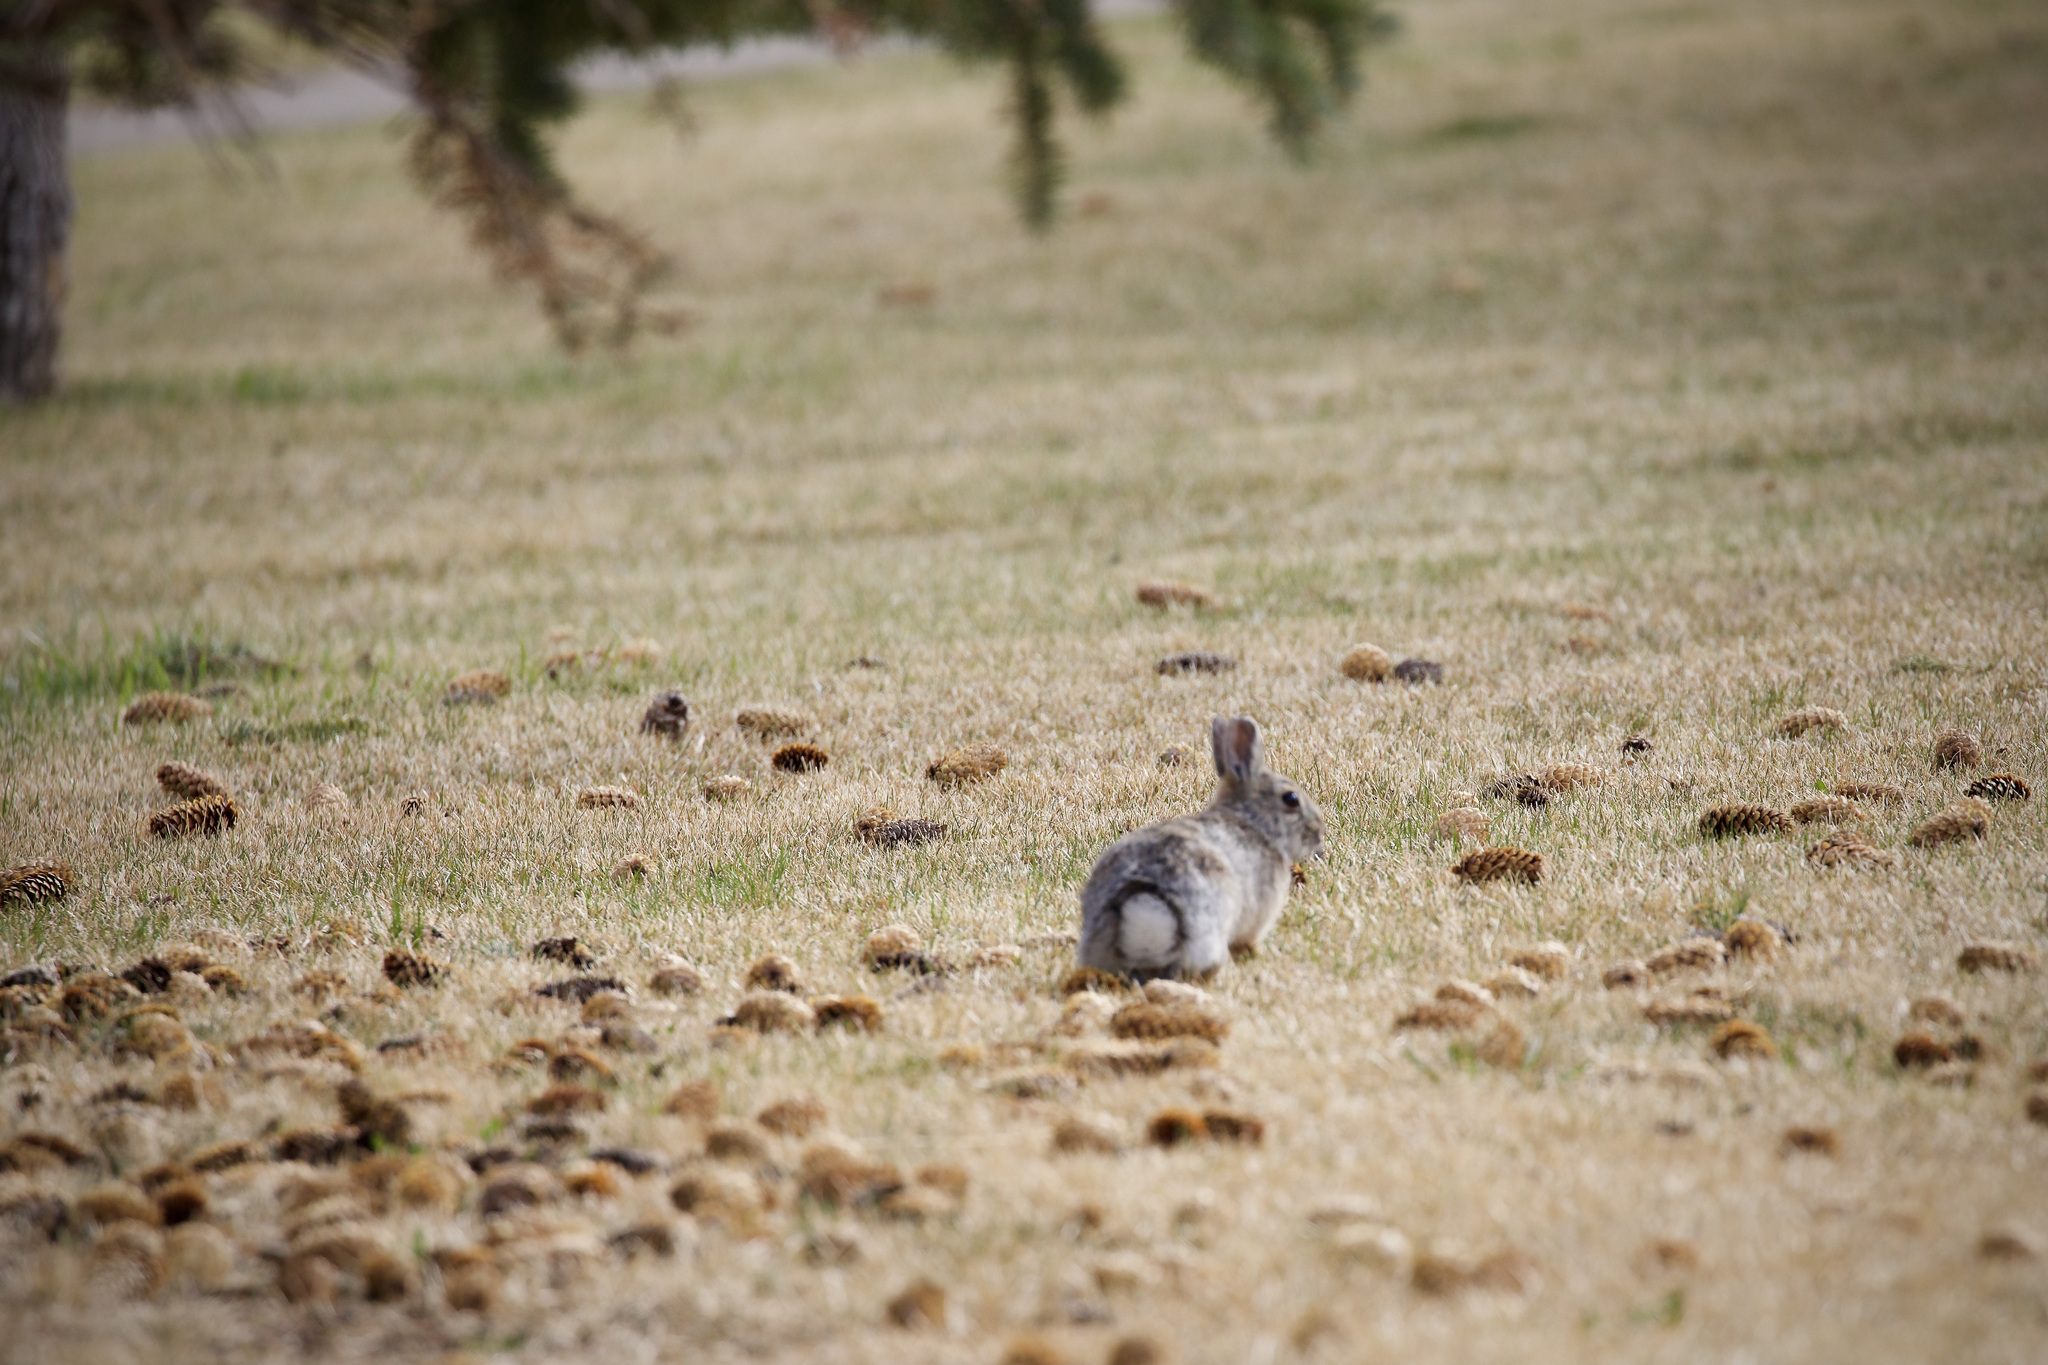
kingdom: Animalia
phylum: Chordata
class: Mammalia
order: Lagomorpha
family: Leporidae
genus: Sylvilagus
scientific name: Sylvilagus nuttallii
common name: Mountain cottontail
